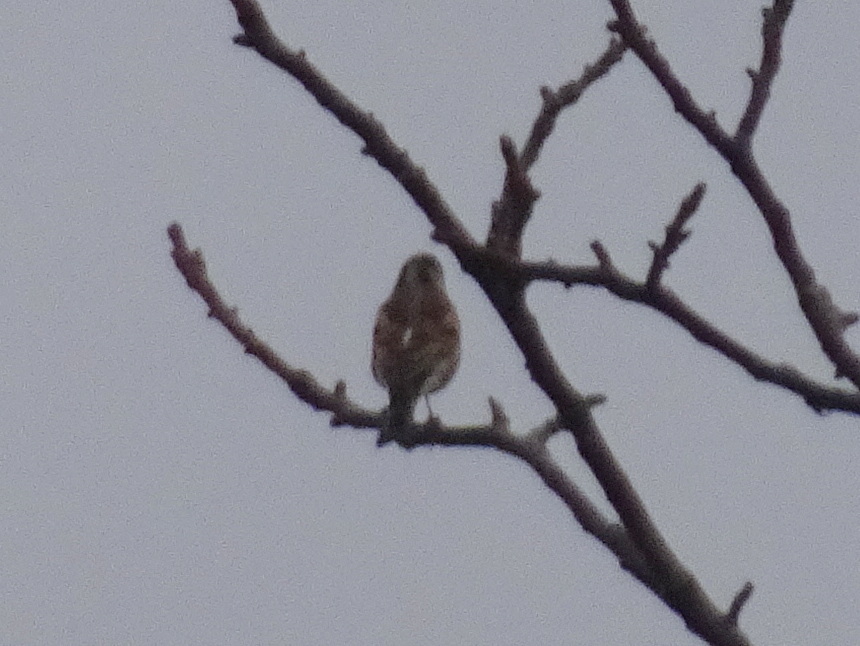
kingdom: Animalia
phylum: Chordata
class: Aves
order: Passeriformes
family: Fringillidae
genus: Fringilla
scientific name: Fringilla montifringilla
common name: Brambling
